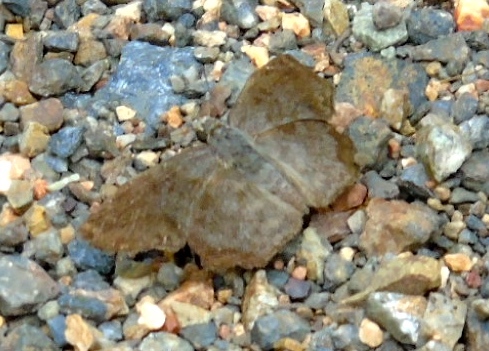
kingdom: Animalia
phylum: Arthropoda
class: Insecta
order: Lepidoptera
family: Hesperiidae
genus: Antigonus
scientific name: Antigonus erosus
